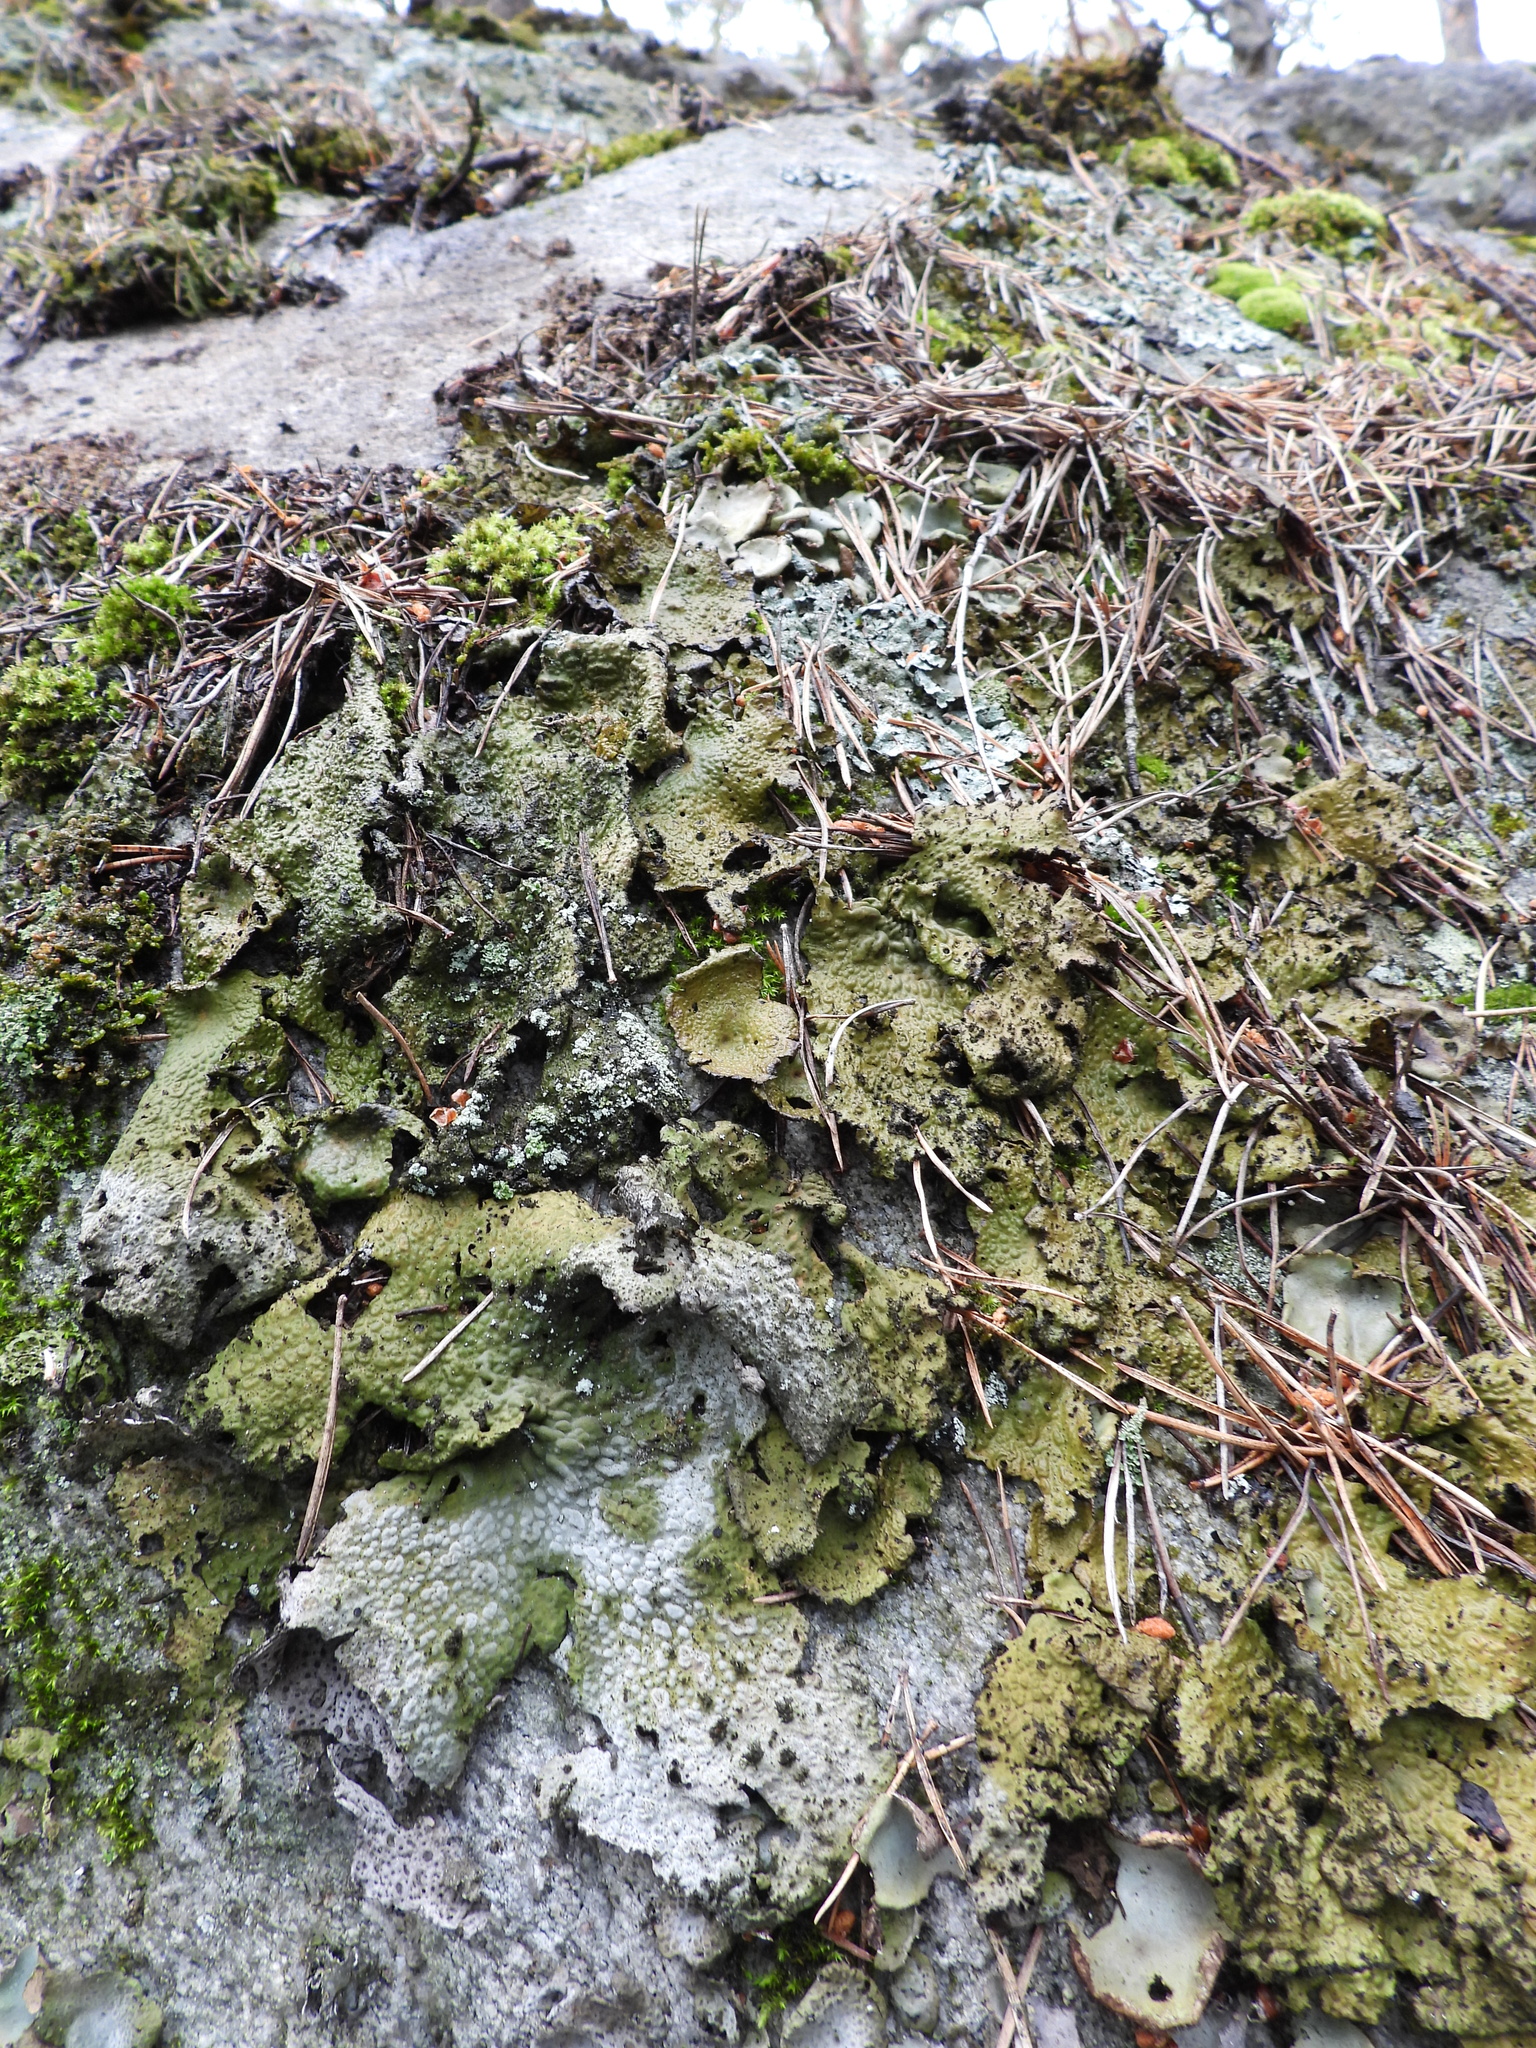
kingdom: Fungi
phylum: Ascomycota
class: Lecanoromycetes
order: Umbilicariales
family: Umbilicariaceae
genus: Lasallia
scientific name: Lasallia pustulata
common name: Blistered toadskin lichen
